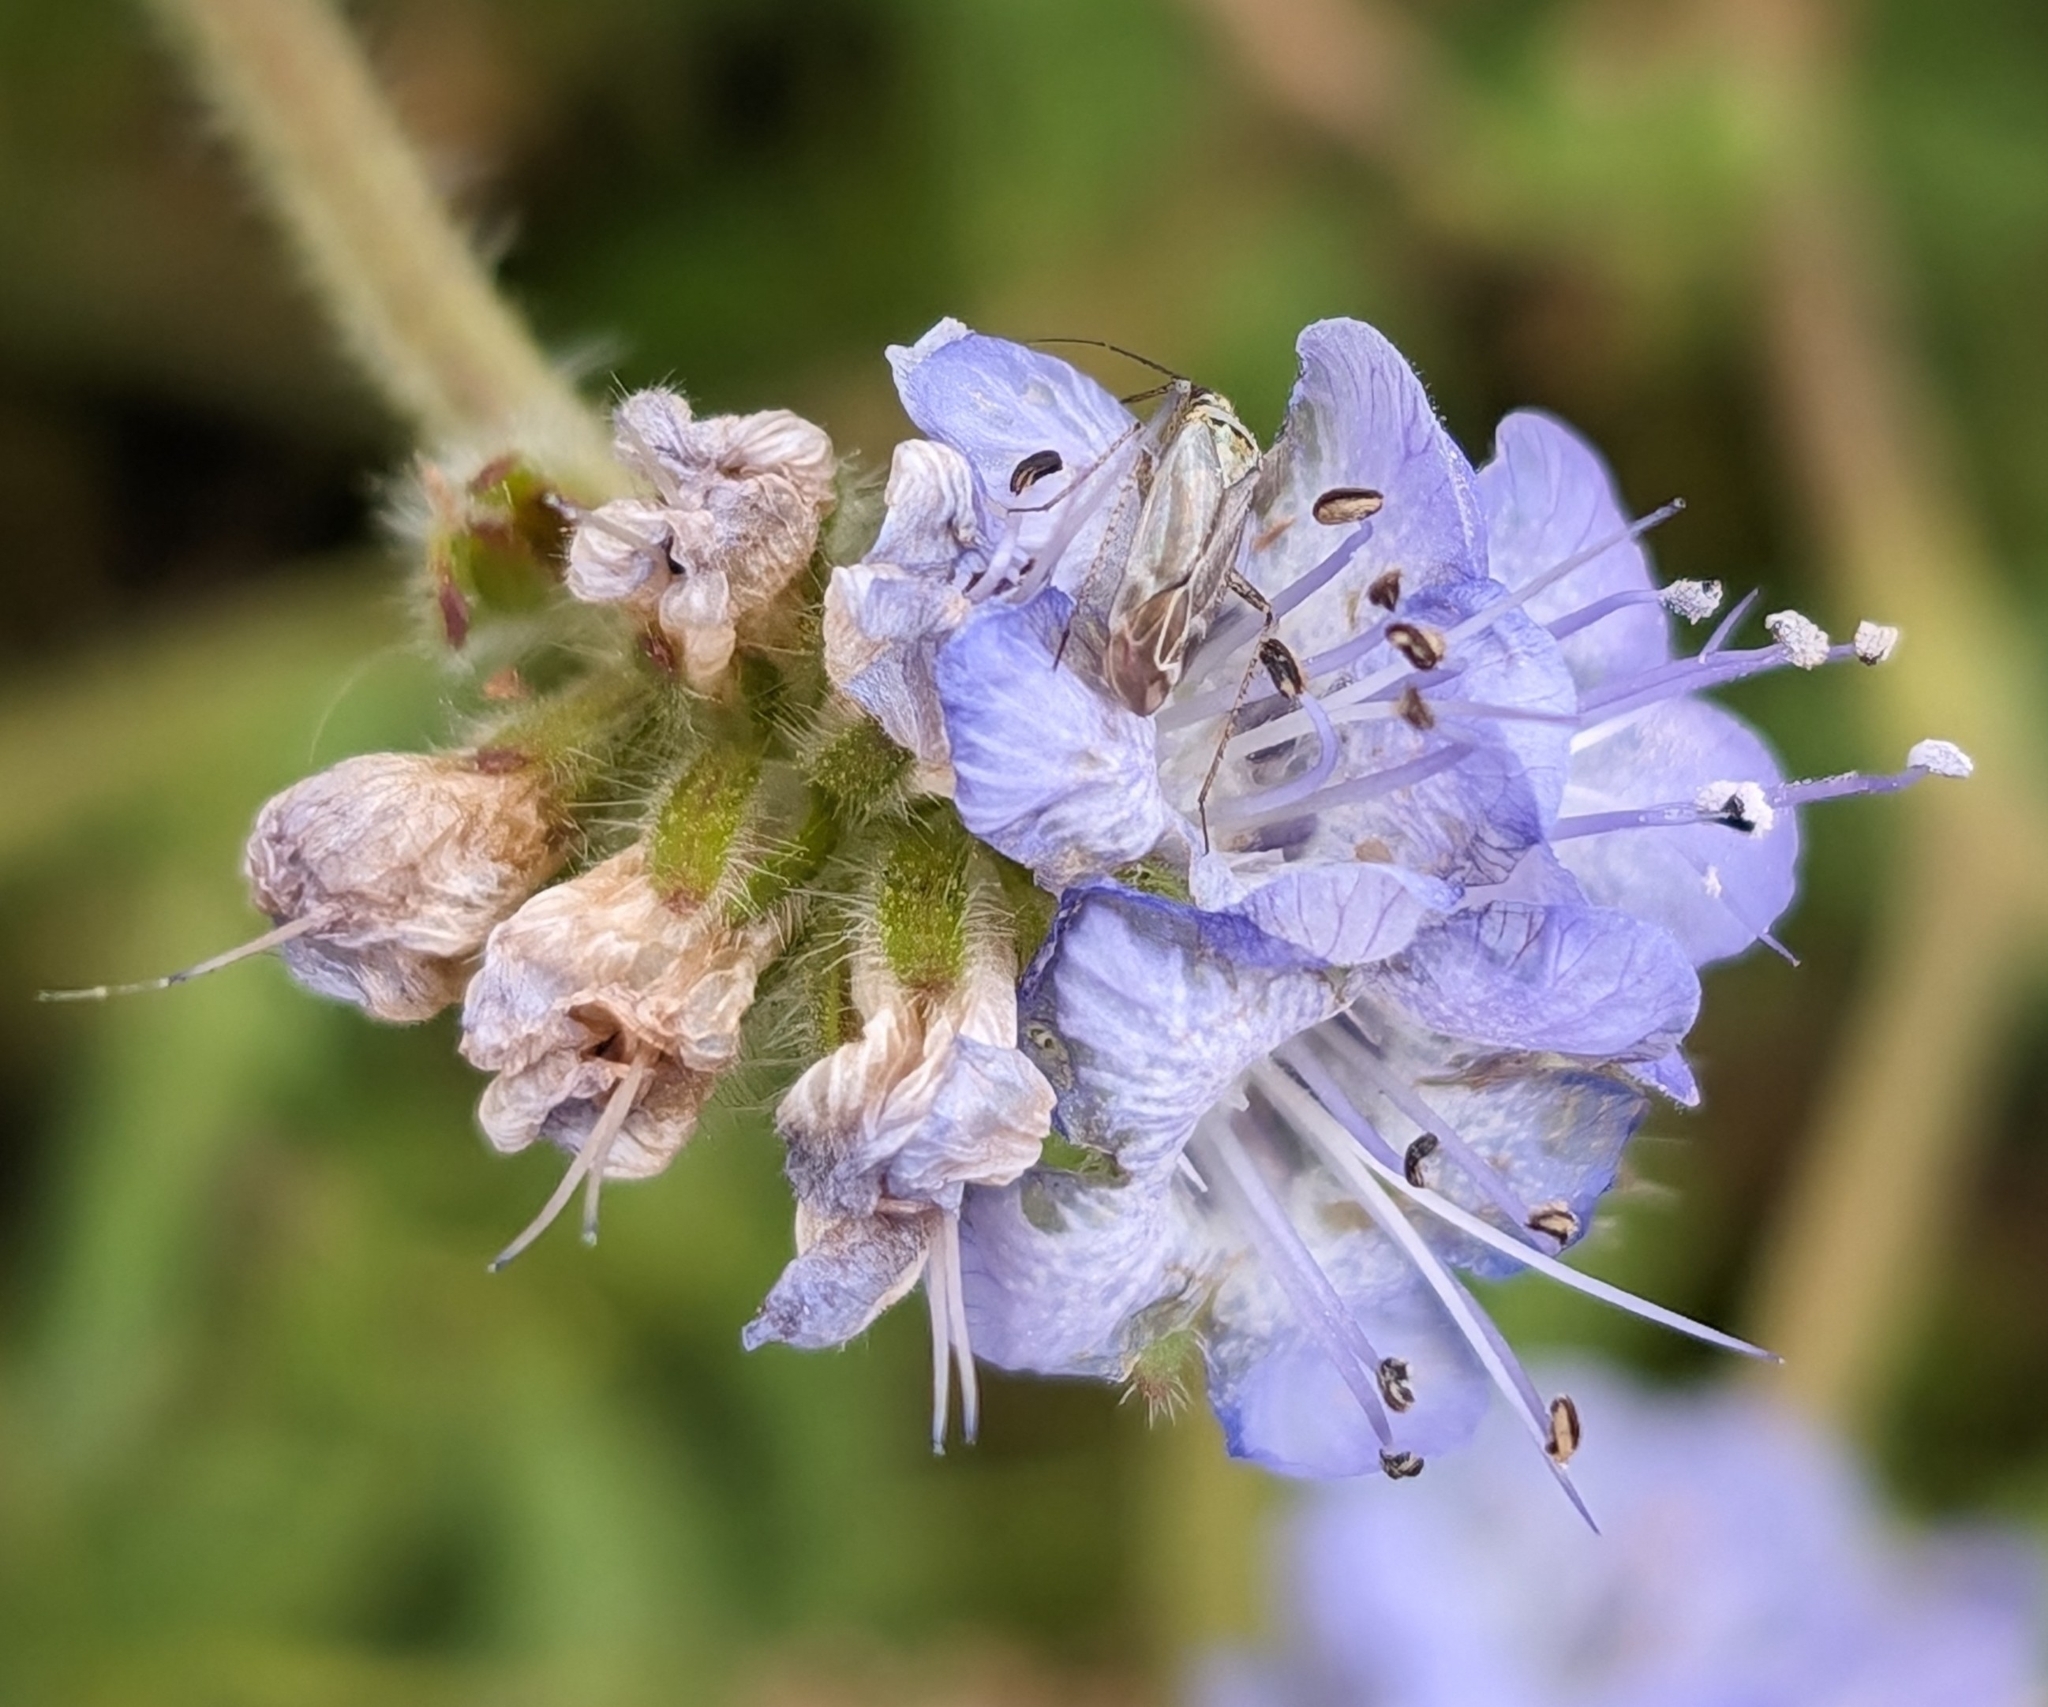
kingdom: Plantae
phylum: Tracheophyta
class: Magnoliopsida
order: Boraginales
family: Hydrophyllaceae
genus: Phacelia
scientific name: Phacelia distans
